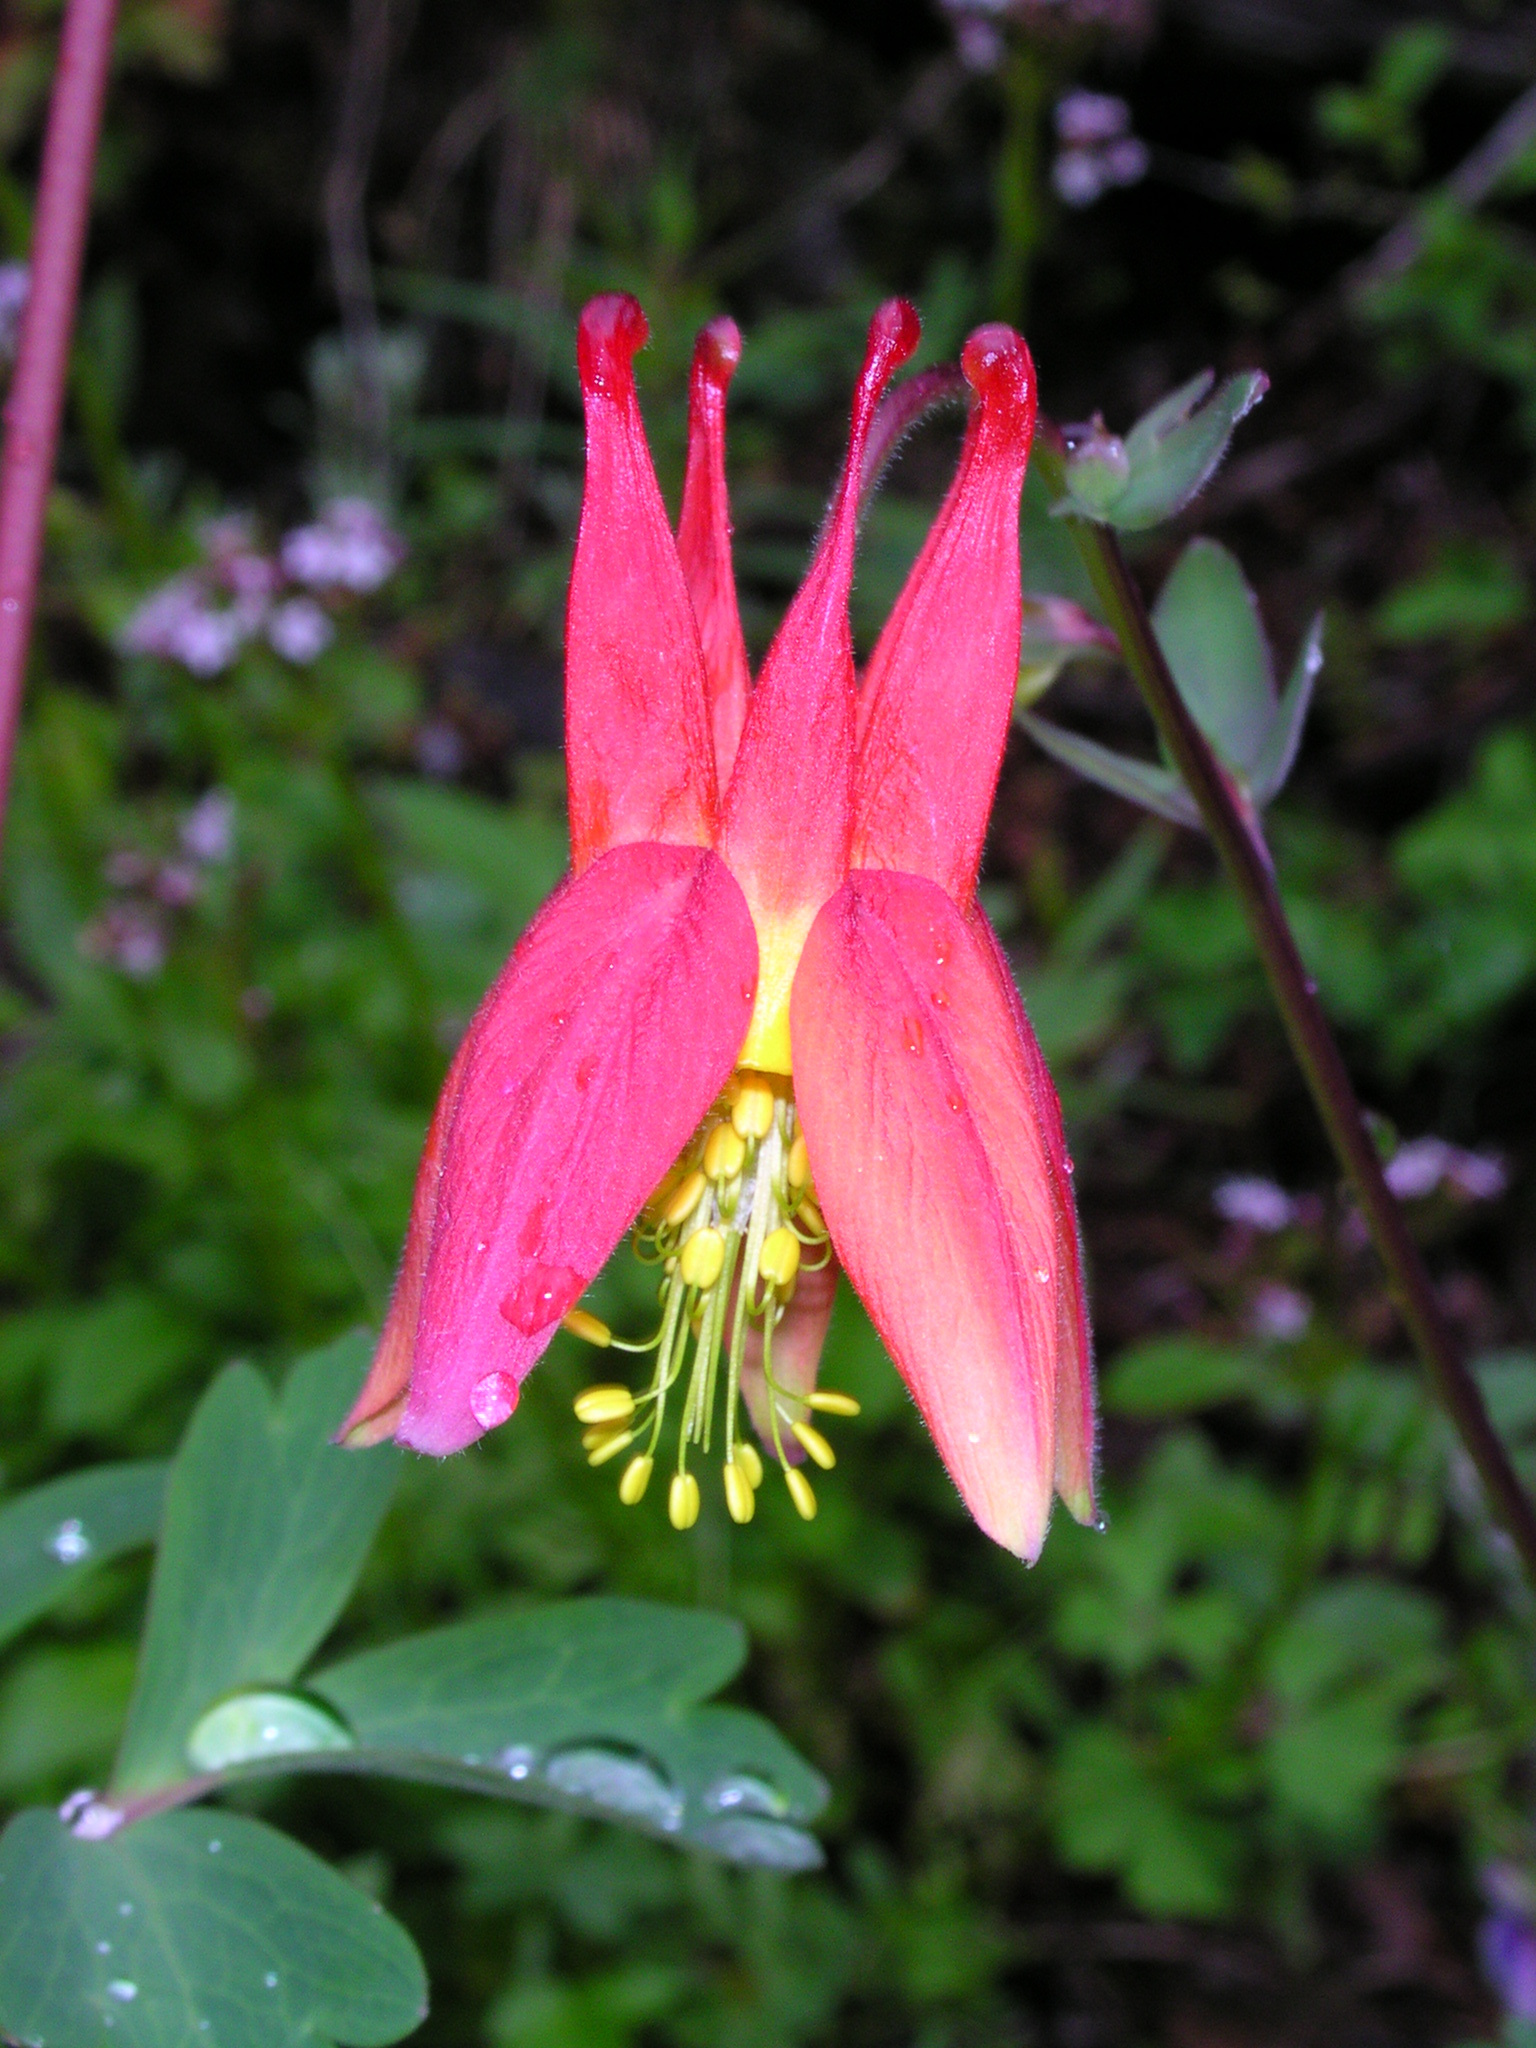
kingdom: Plantae
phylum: Tracheophyta
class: Magnoliopsida
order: Ranunculales
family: Ranunculaceae
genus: Aquilegia
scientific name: Aquilegia formosa
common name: Sitka columbine
